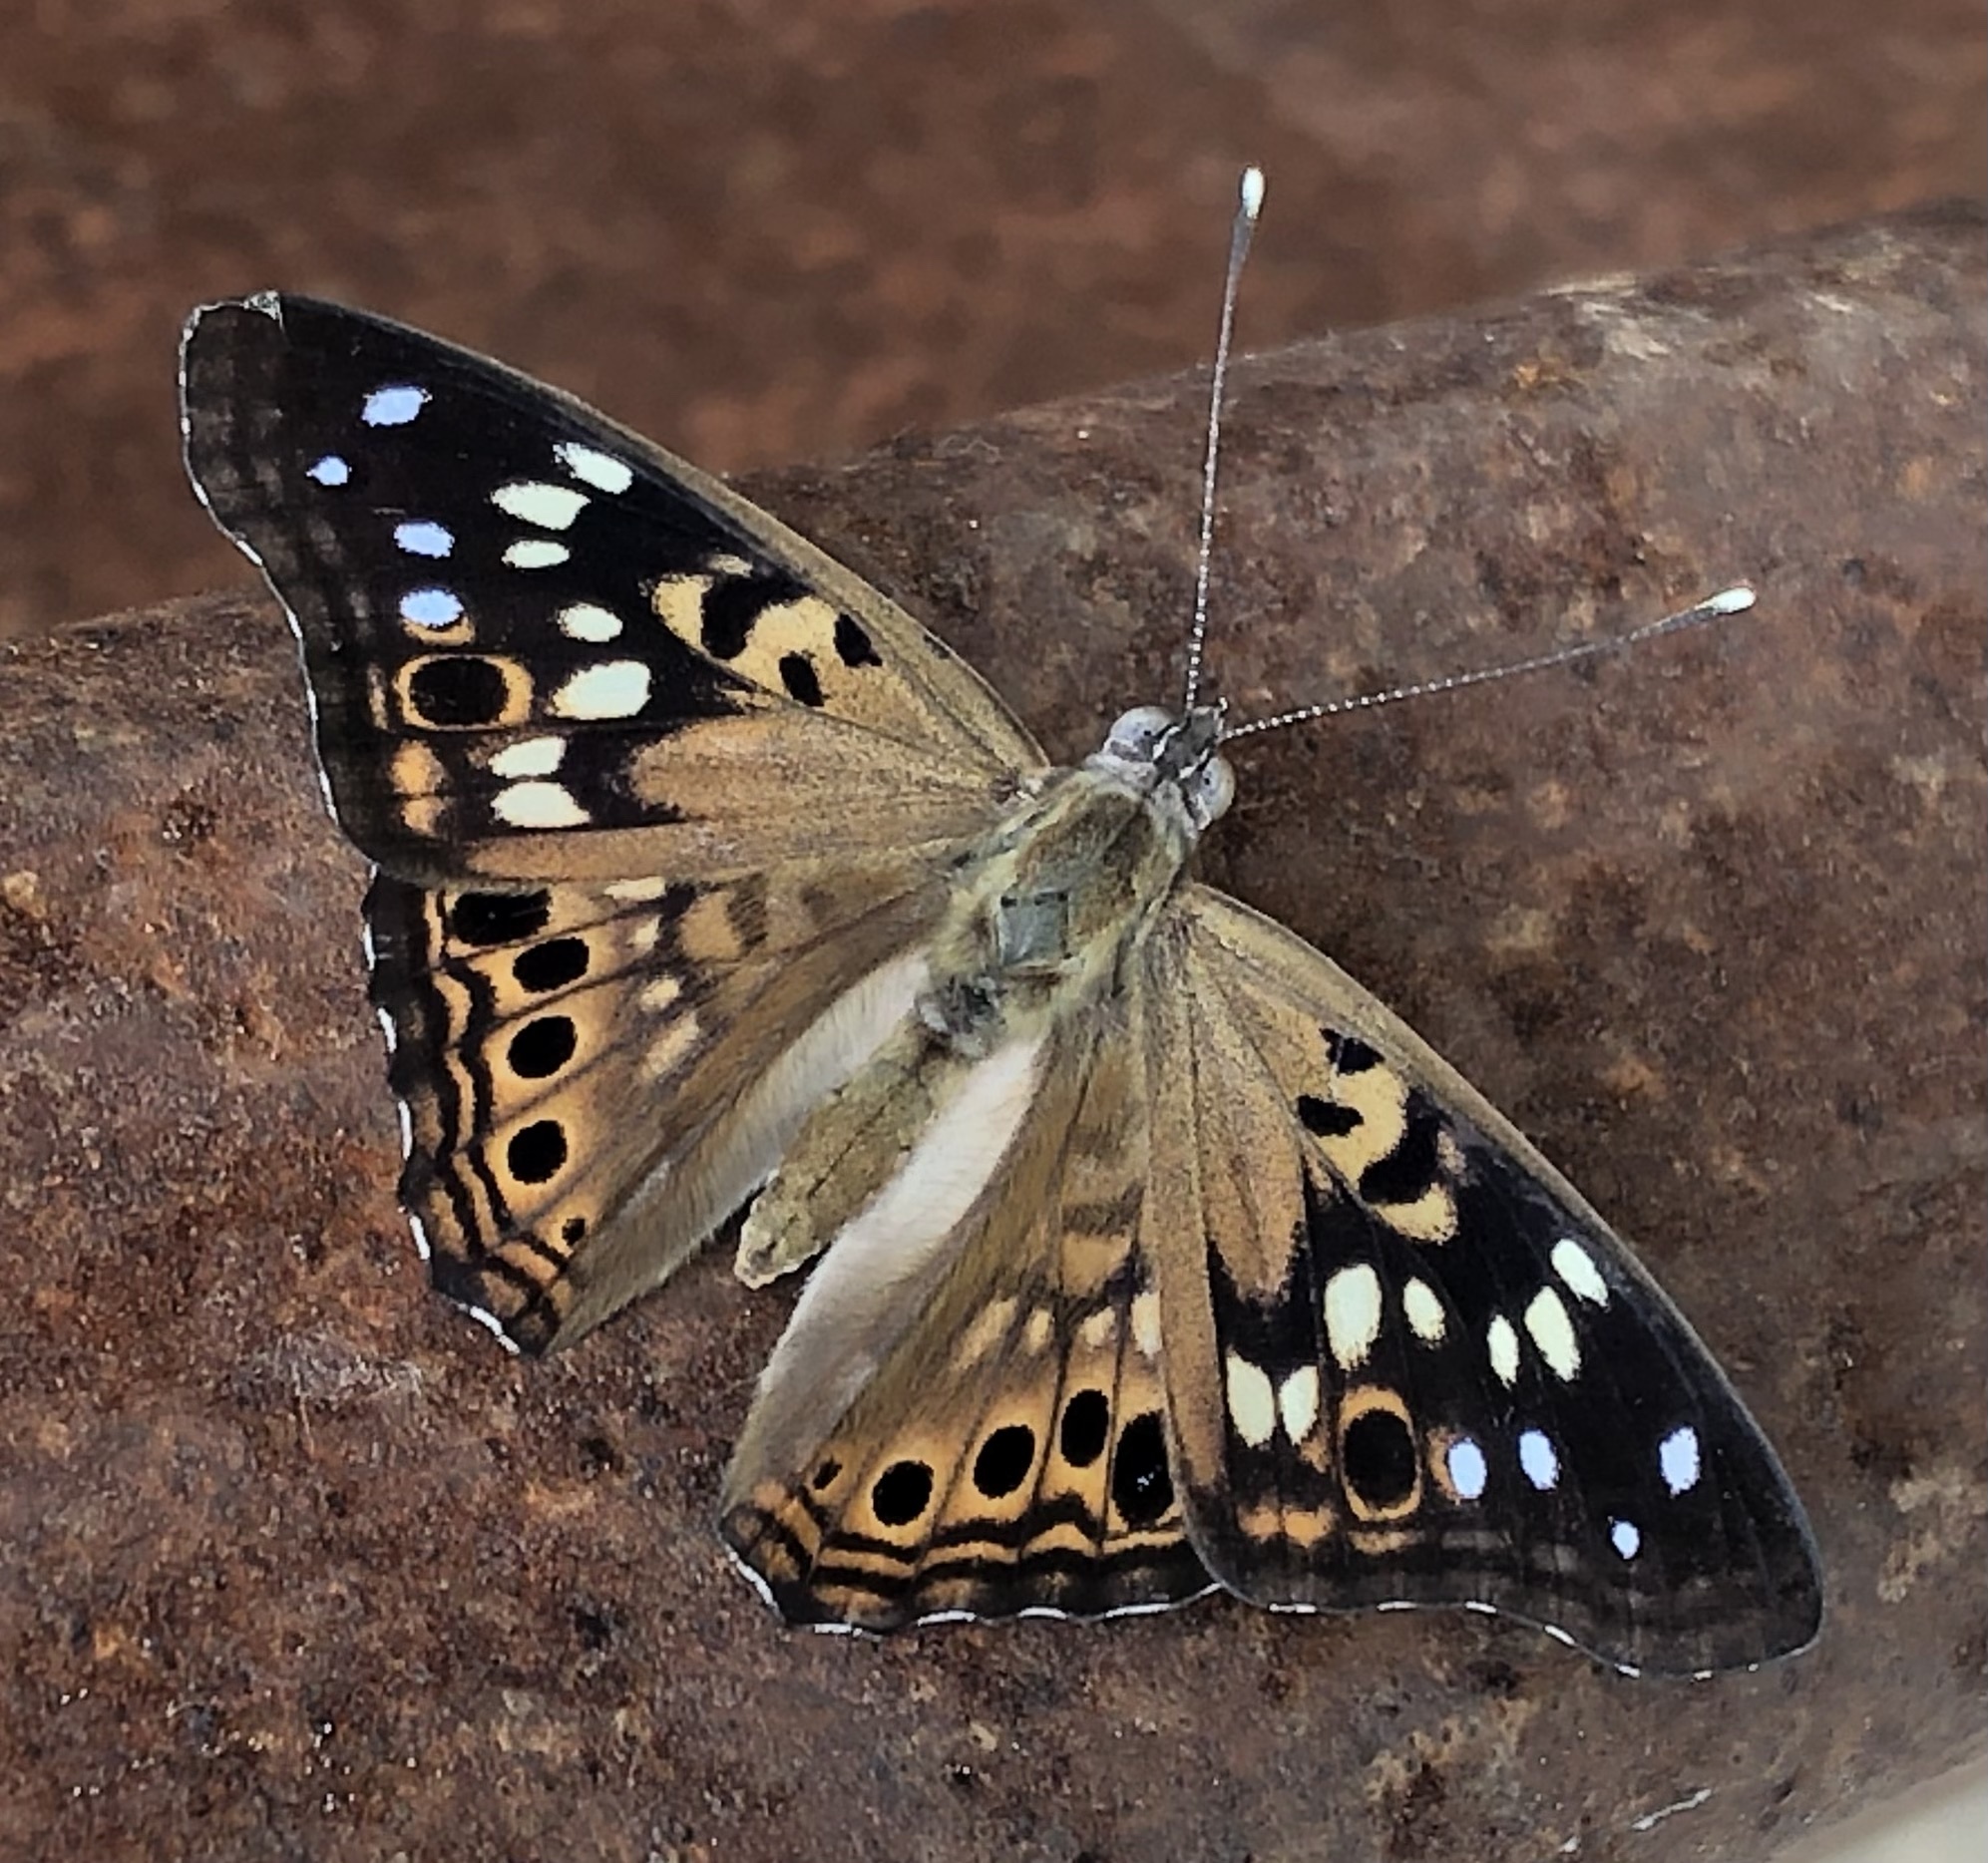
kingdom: Animalia
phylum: Arthropoda
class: Insecta
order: Lepidoptera
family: Nymphalidae
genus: Asterocampa
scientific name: Asterocampa celtis
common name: Hackberry emperor
